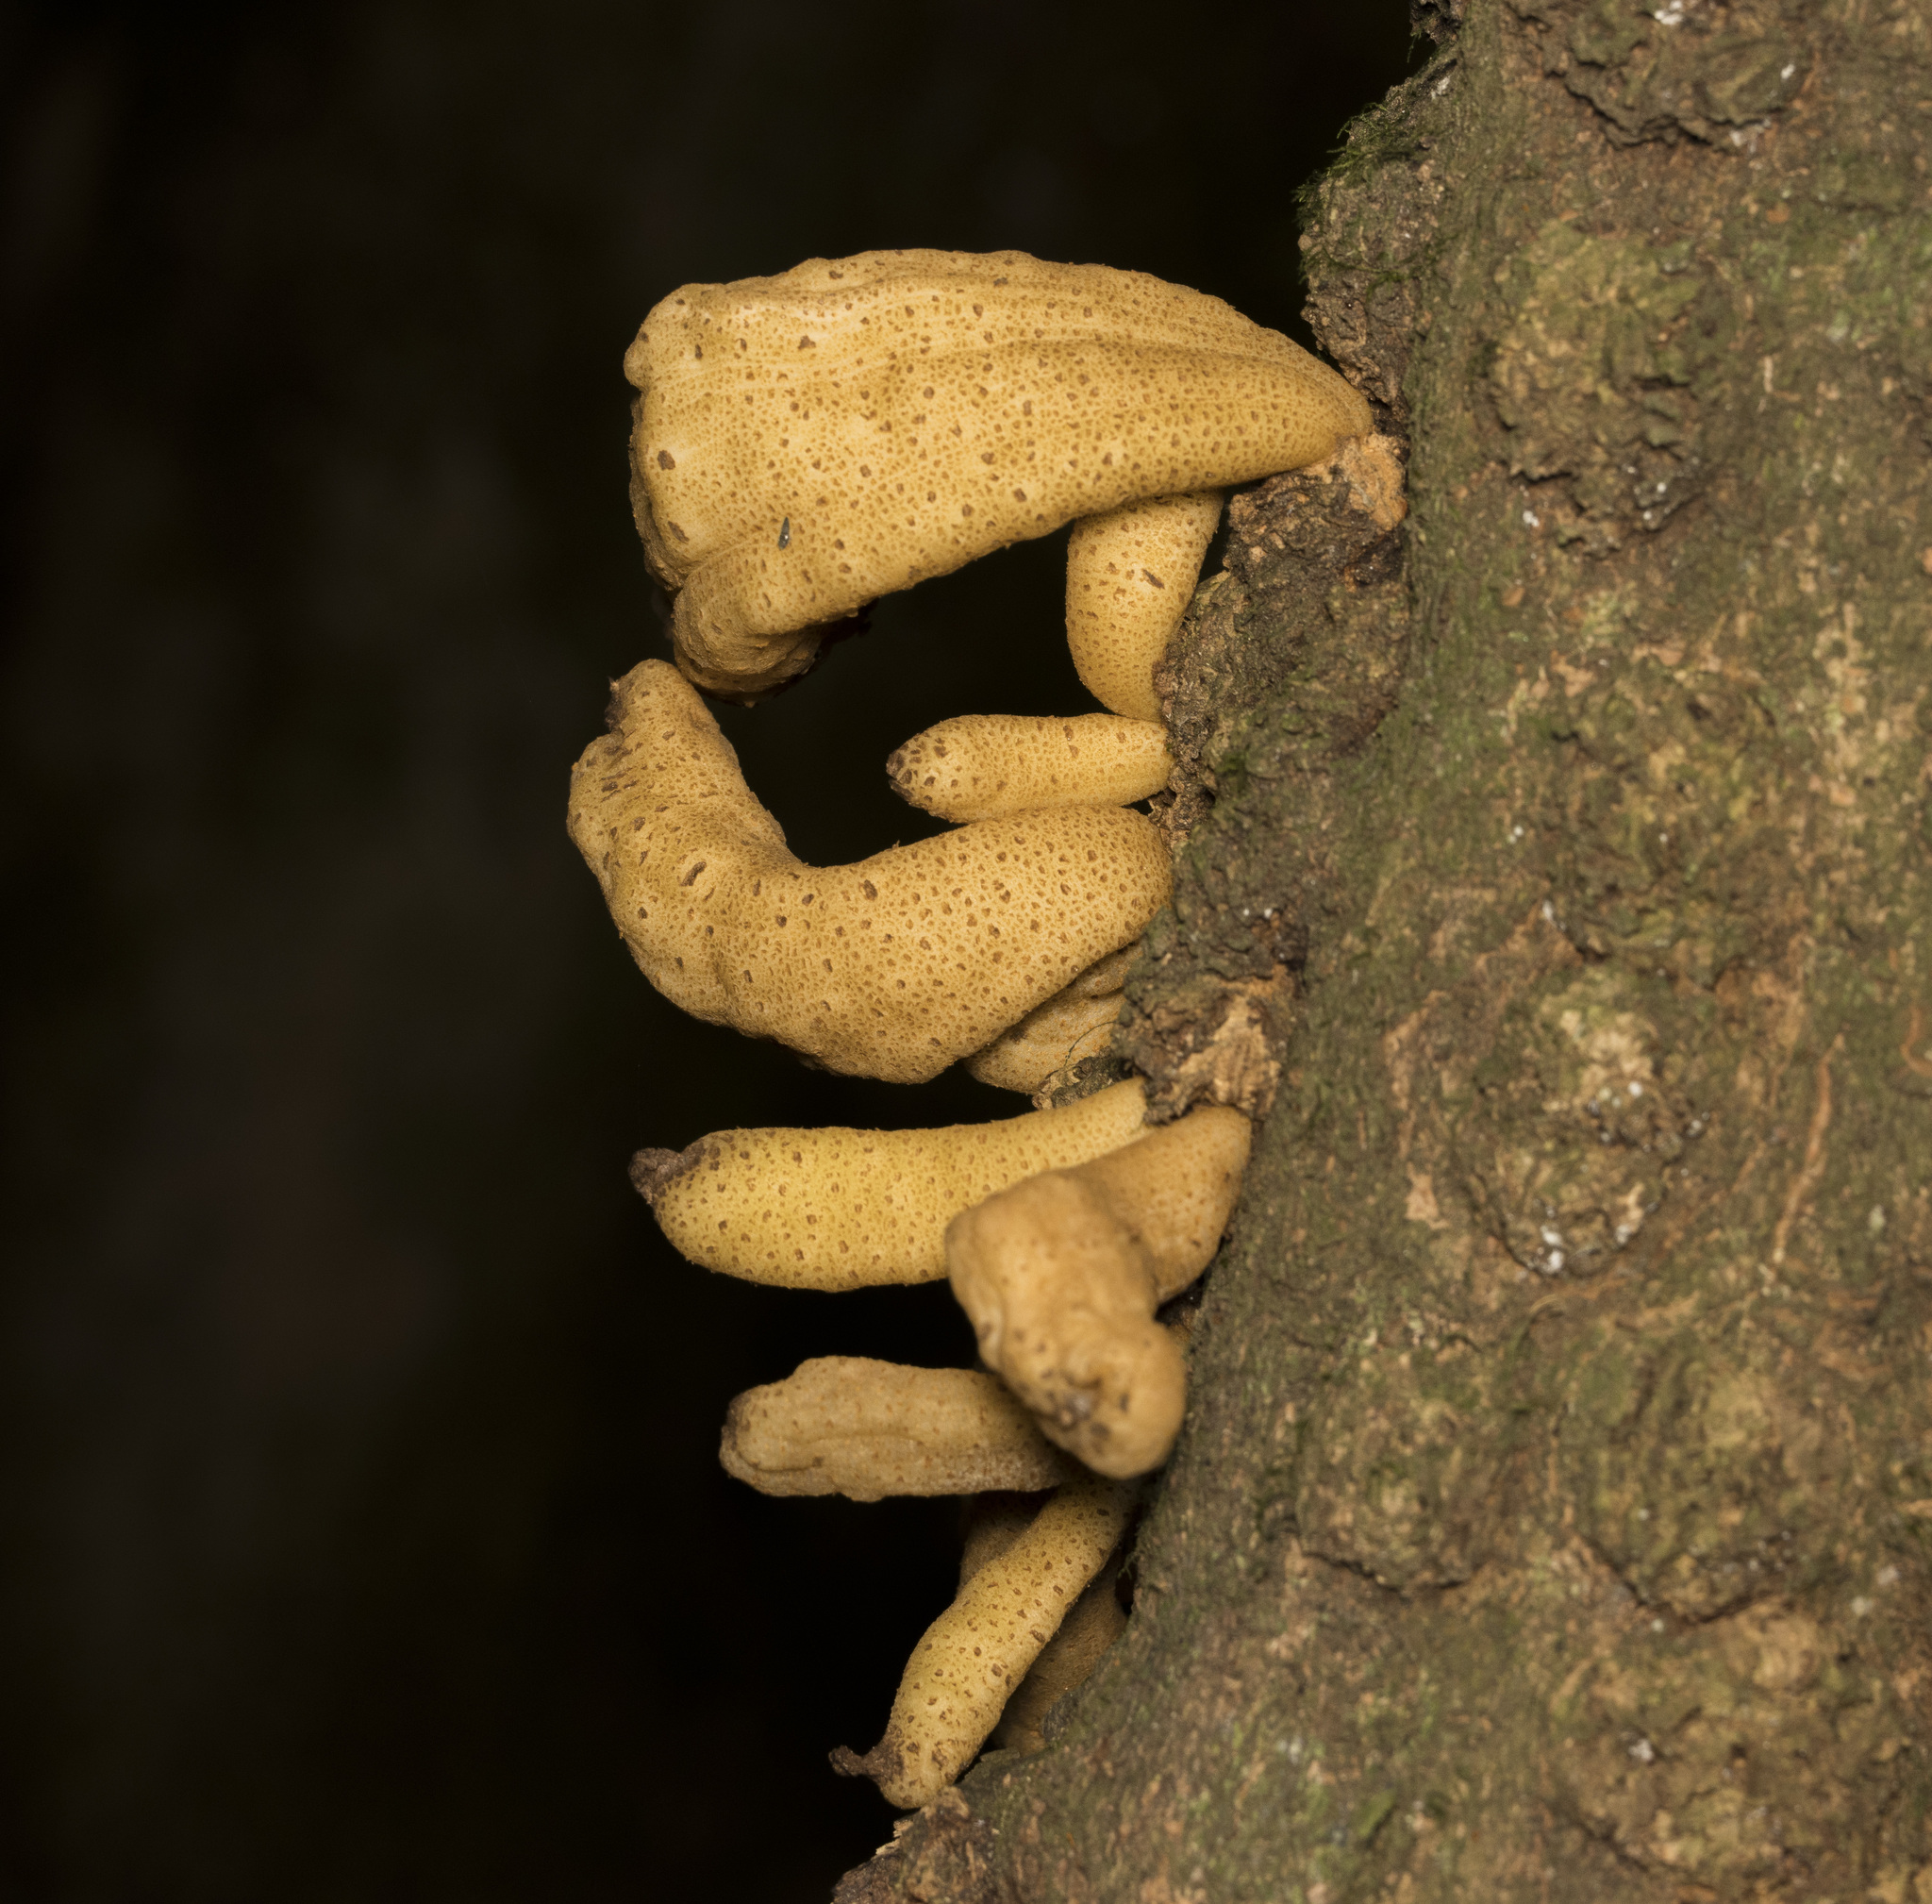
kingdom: Fungi
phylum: Basidiomycota
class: Exobasidiomycetes
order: Exobasidiales
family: Exobasidiaceae
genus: Austrobasidium
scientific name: Austrobasidium pehueldeni
